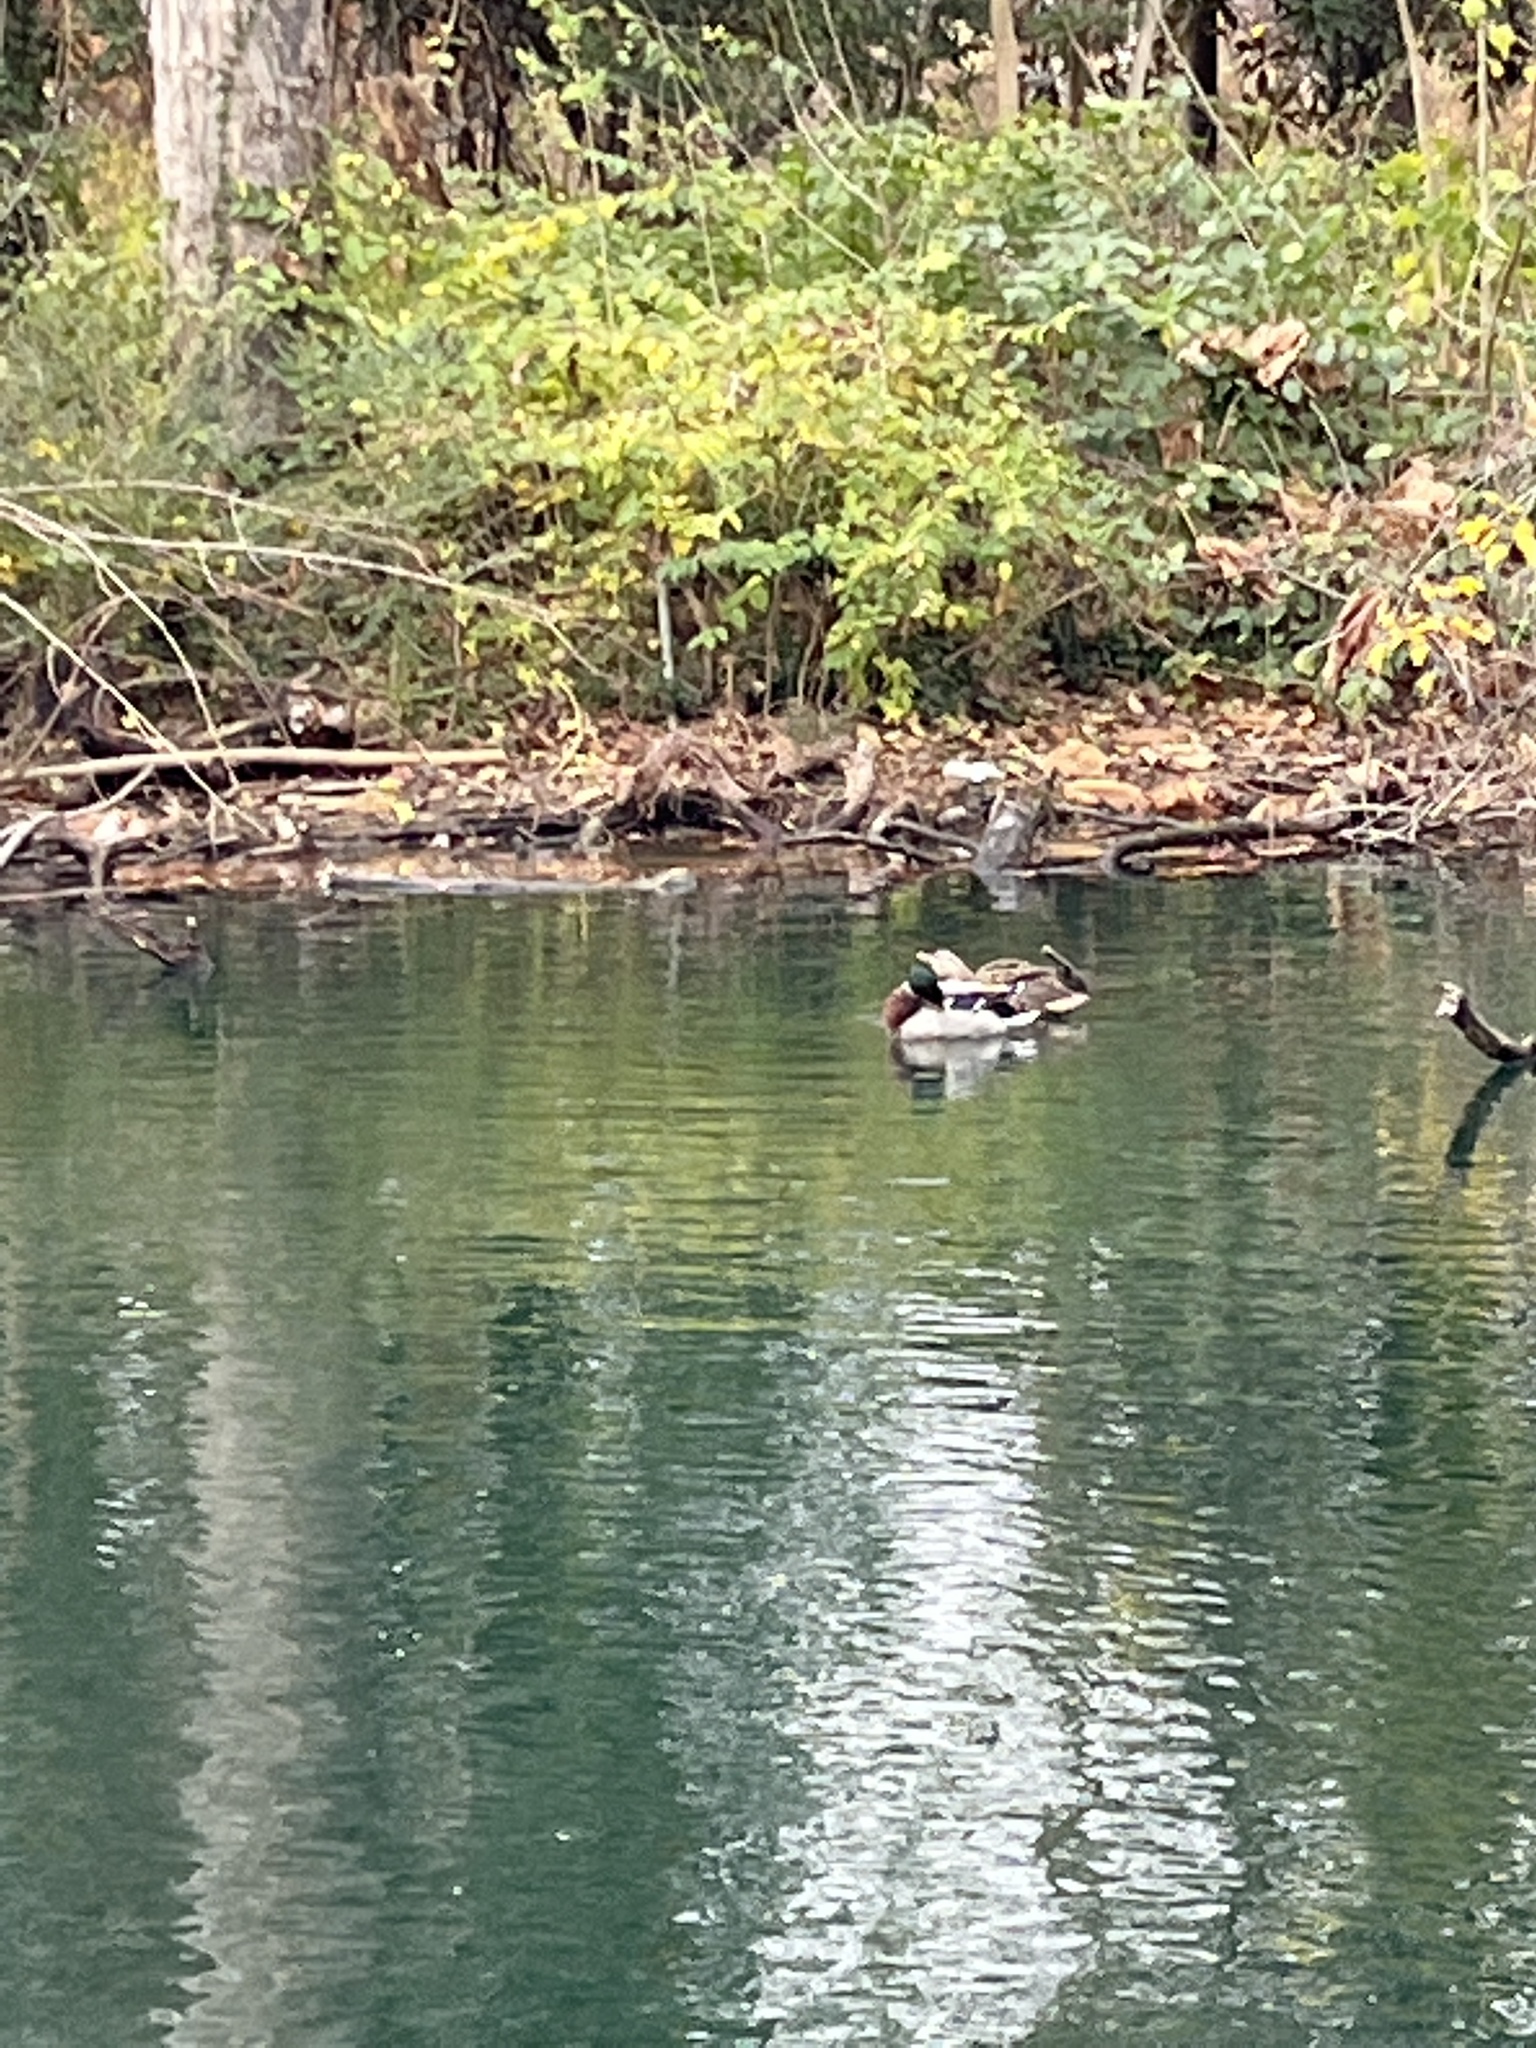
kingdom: Animalia
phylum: Chordata
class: Aves
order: Anseriformes
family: Anatidae
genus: Anas
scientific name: Anas platyrhynchos
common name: Mallard
